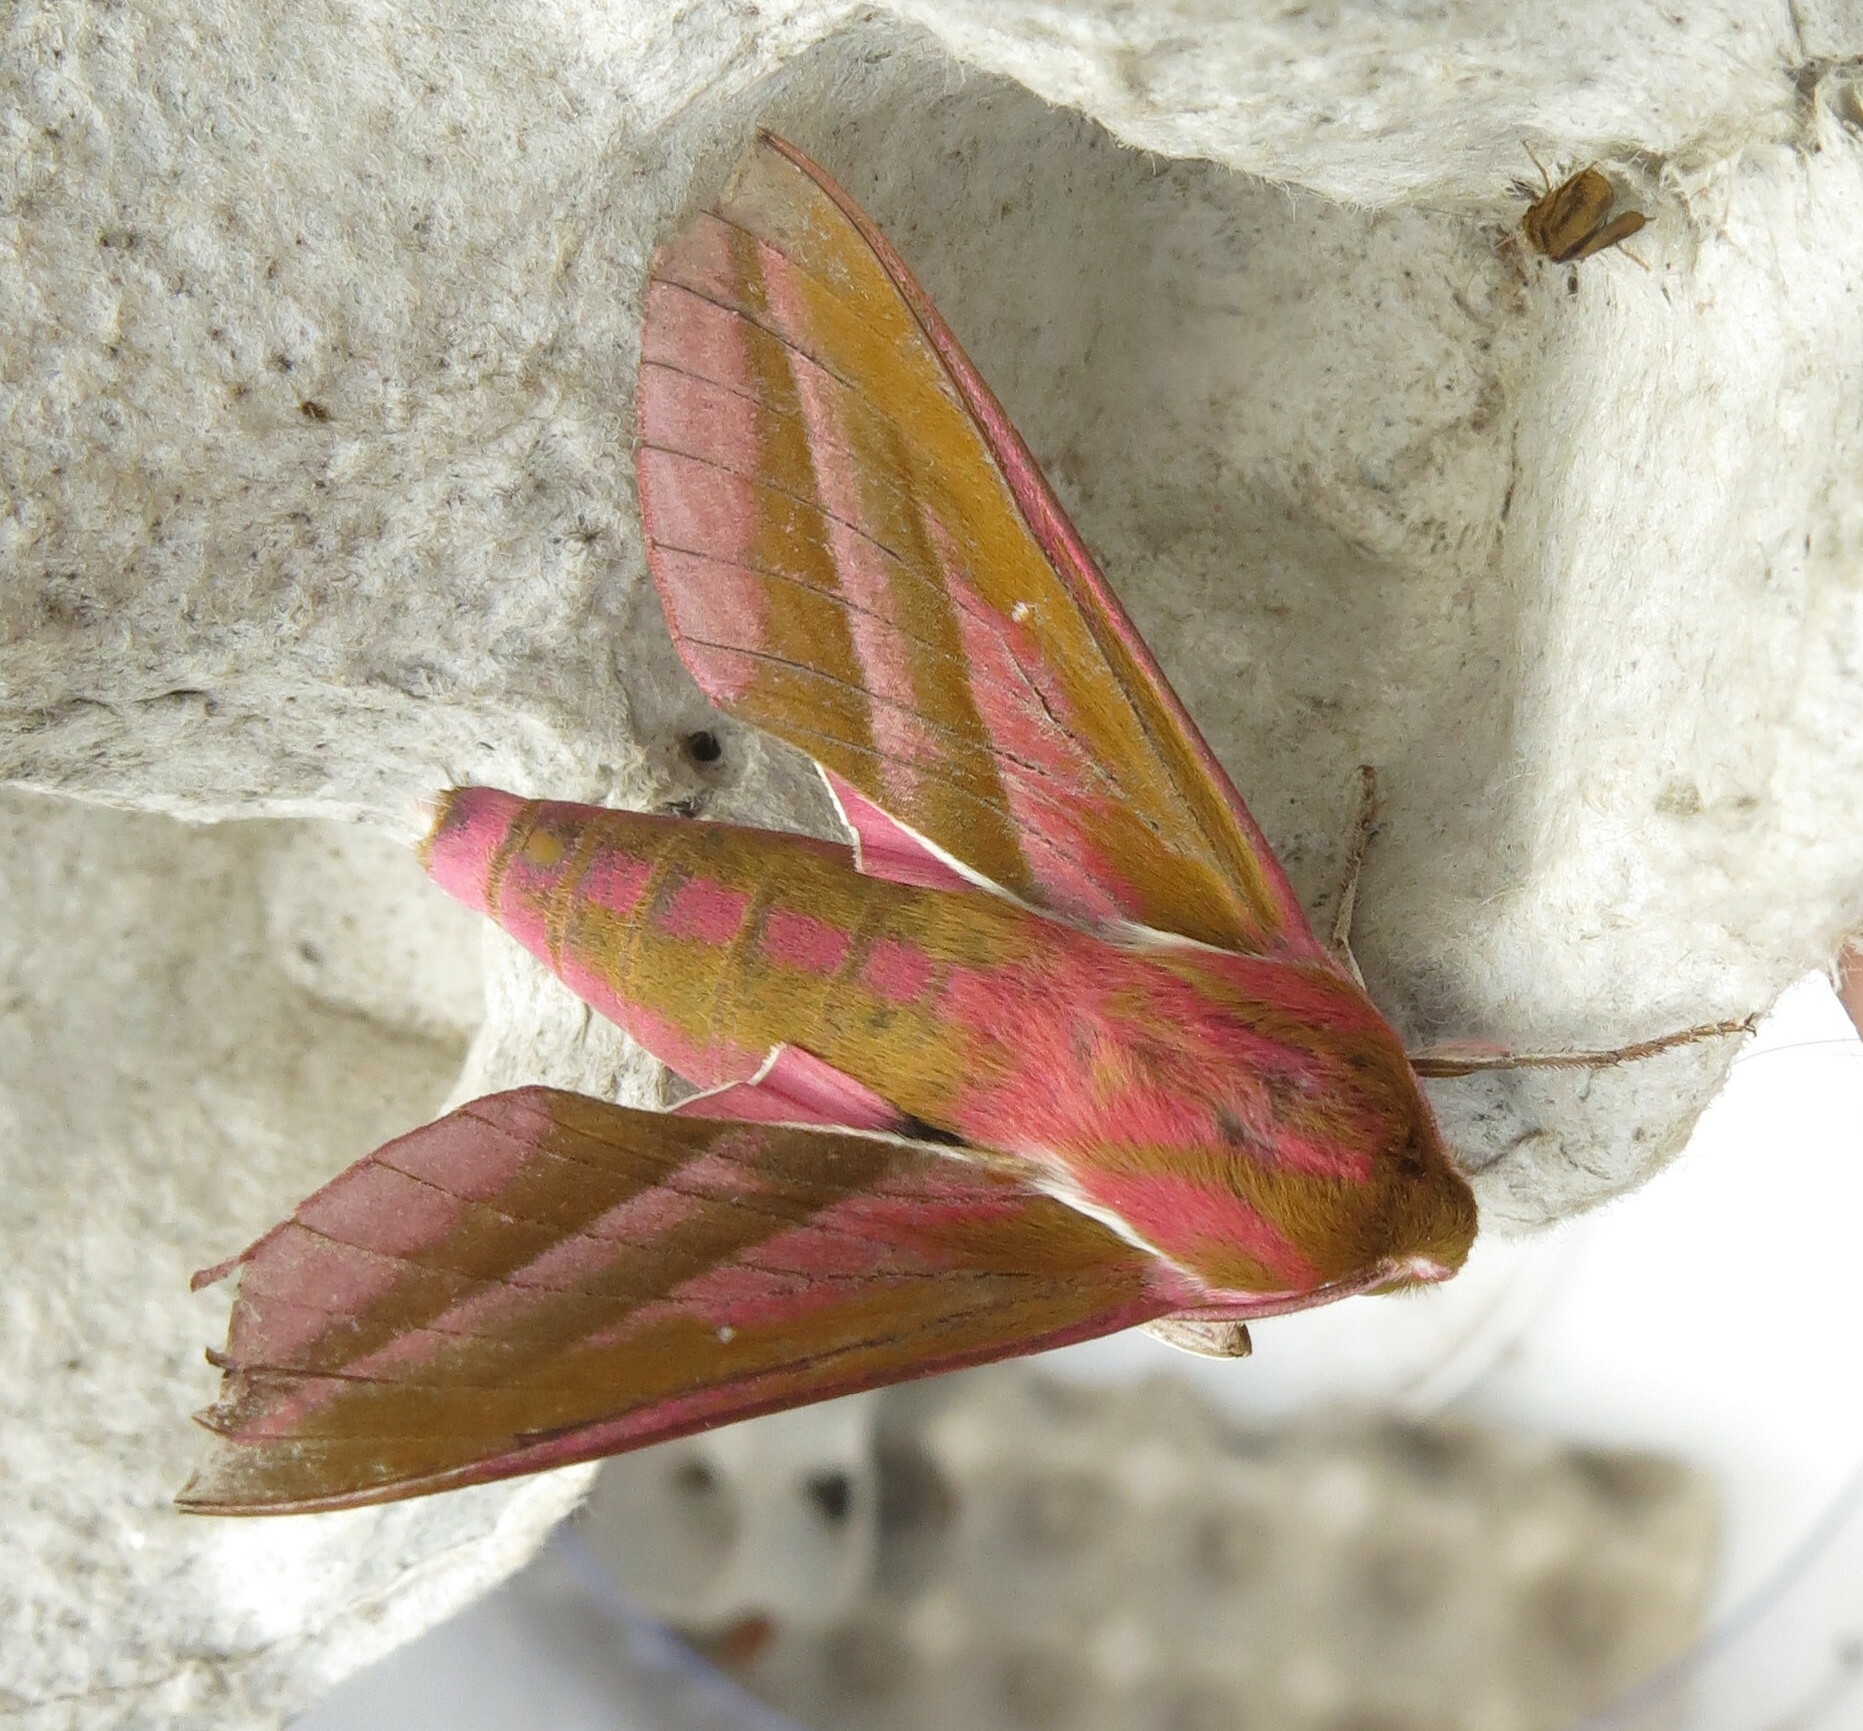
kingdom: Animalia
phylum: Arthropoda
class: Insecta
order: Lepidoptera
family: Sphingidae
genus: Deilephila
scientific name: Deilephila elpenor
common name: Elephant hawk-moth
